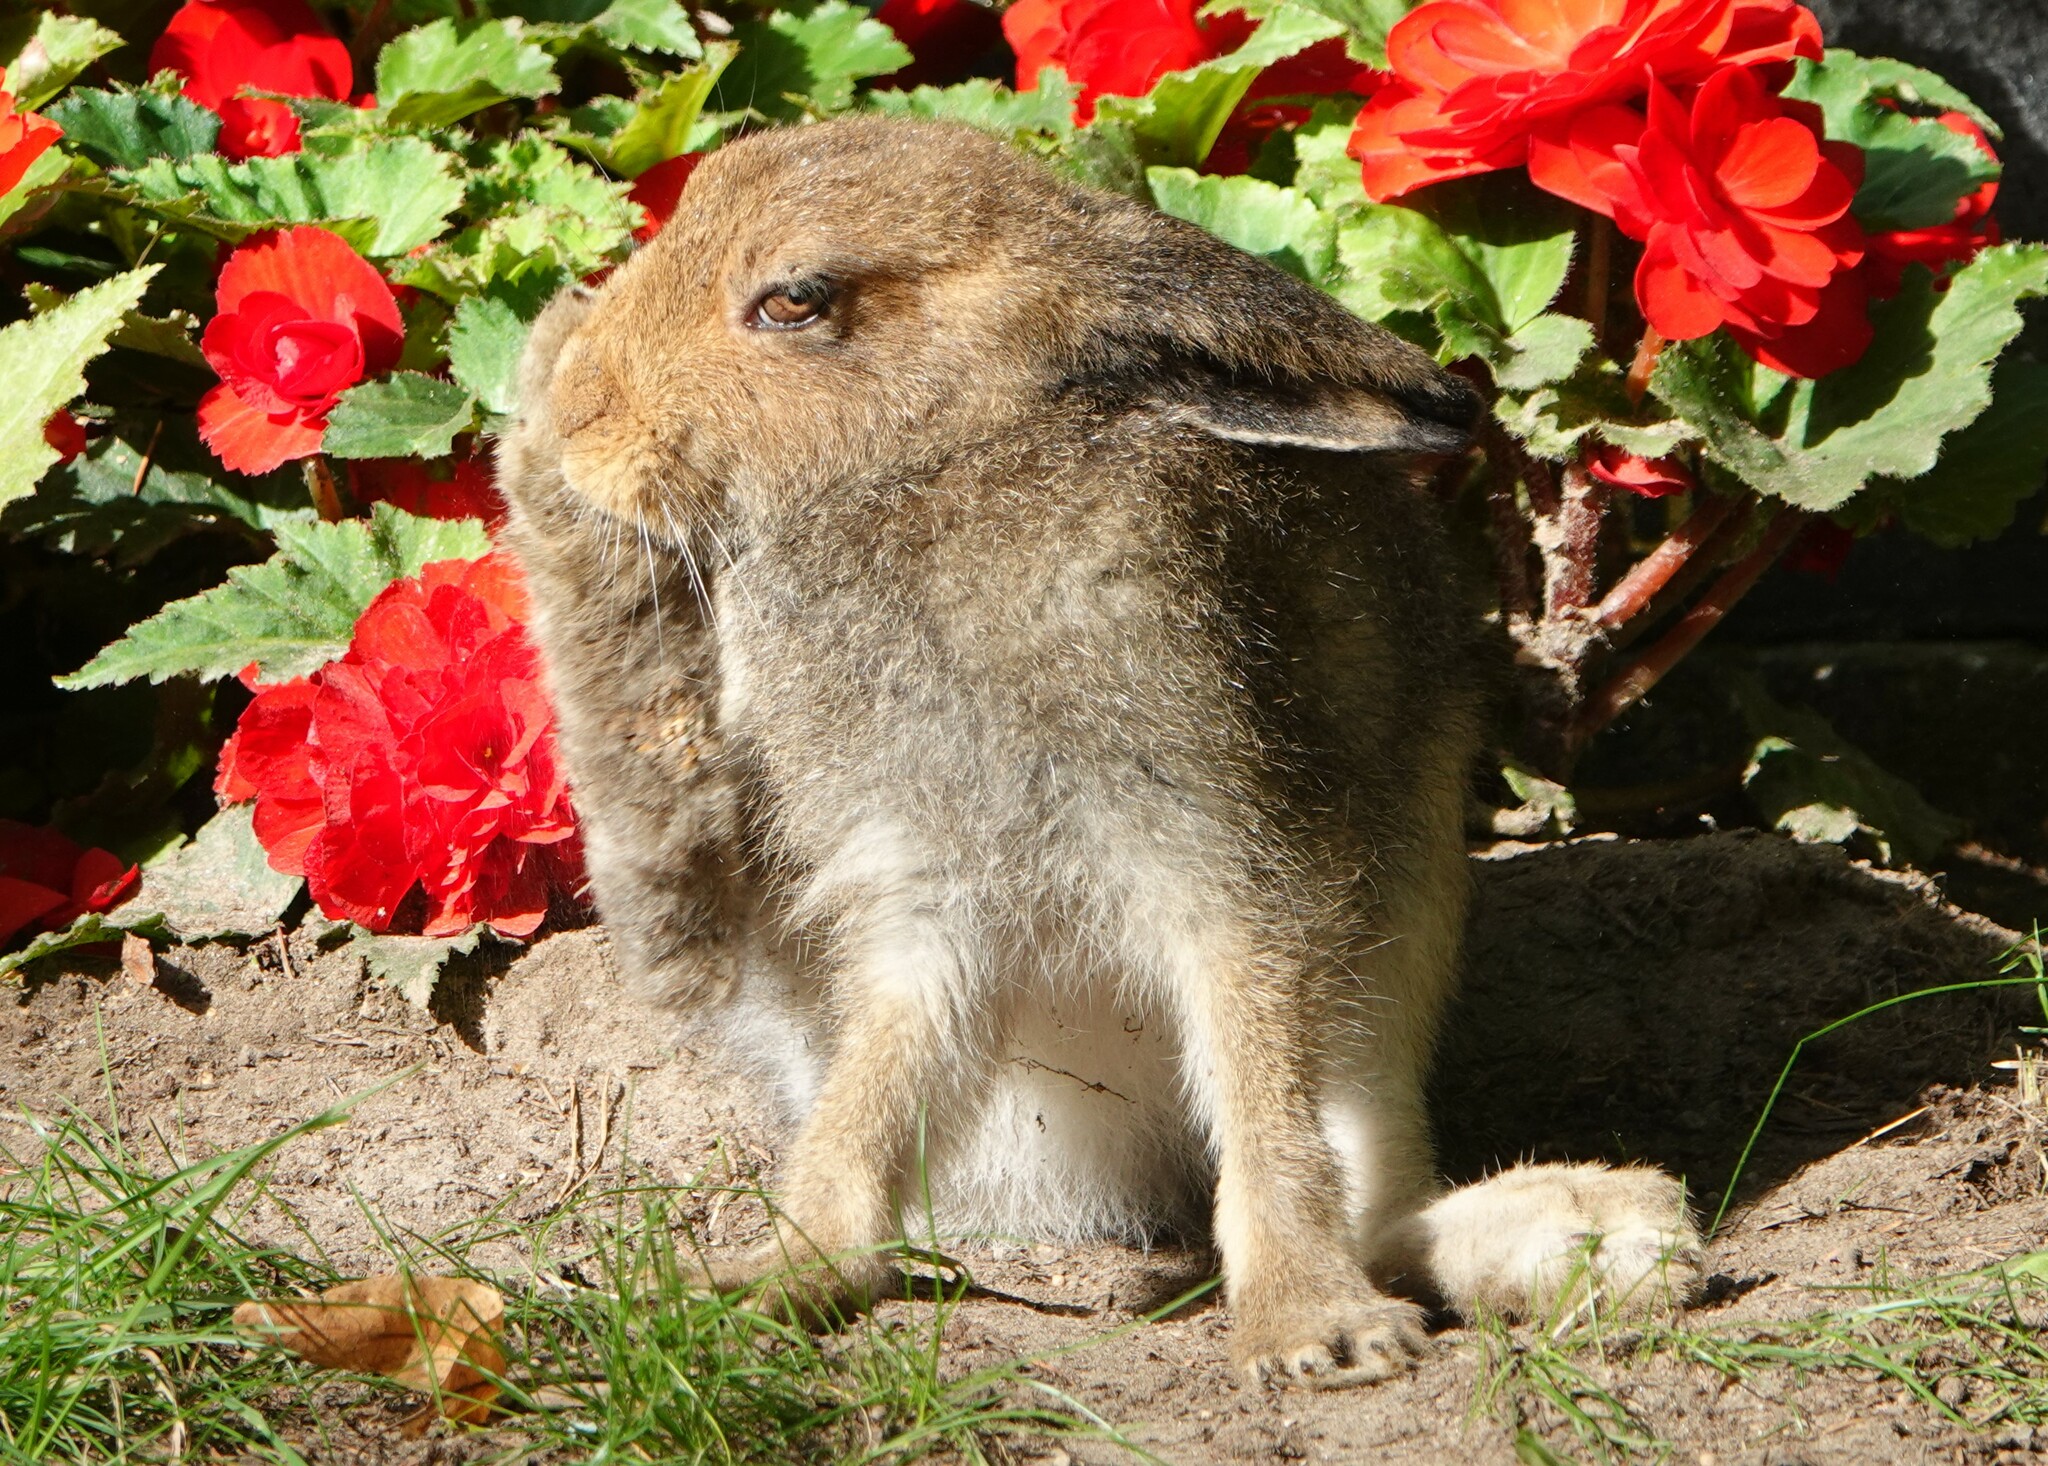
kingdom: Animalia
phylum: Chordata
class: Mammalia
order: Lagomorpha
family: Leporidae
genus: Lepus
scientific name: Lepus timidus
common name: Mountain hare
